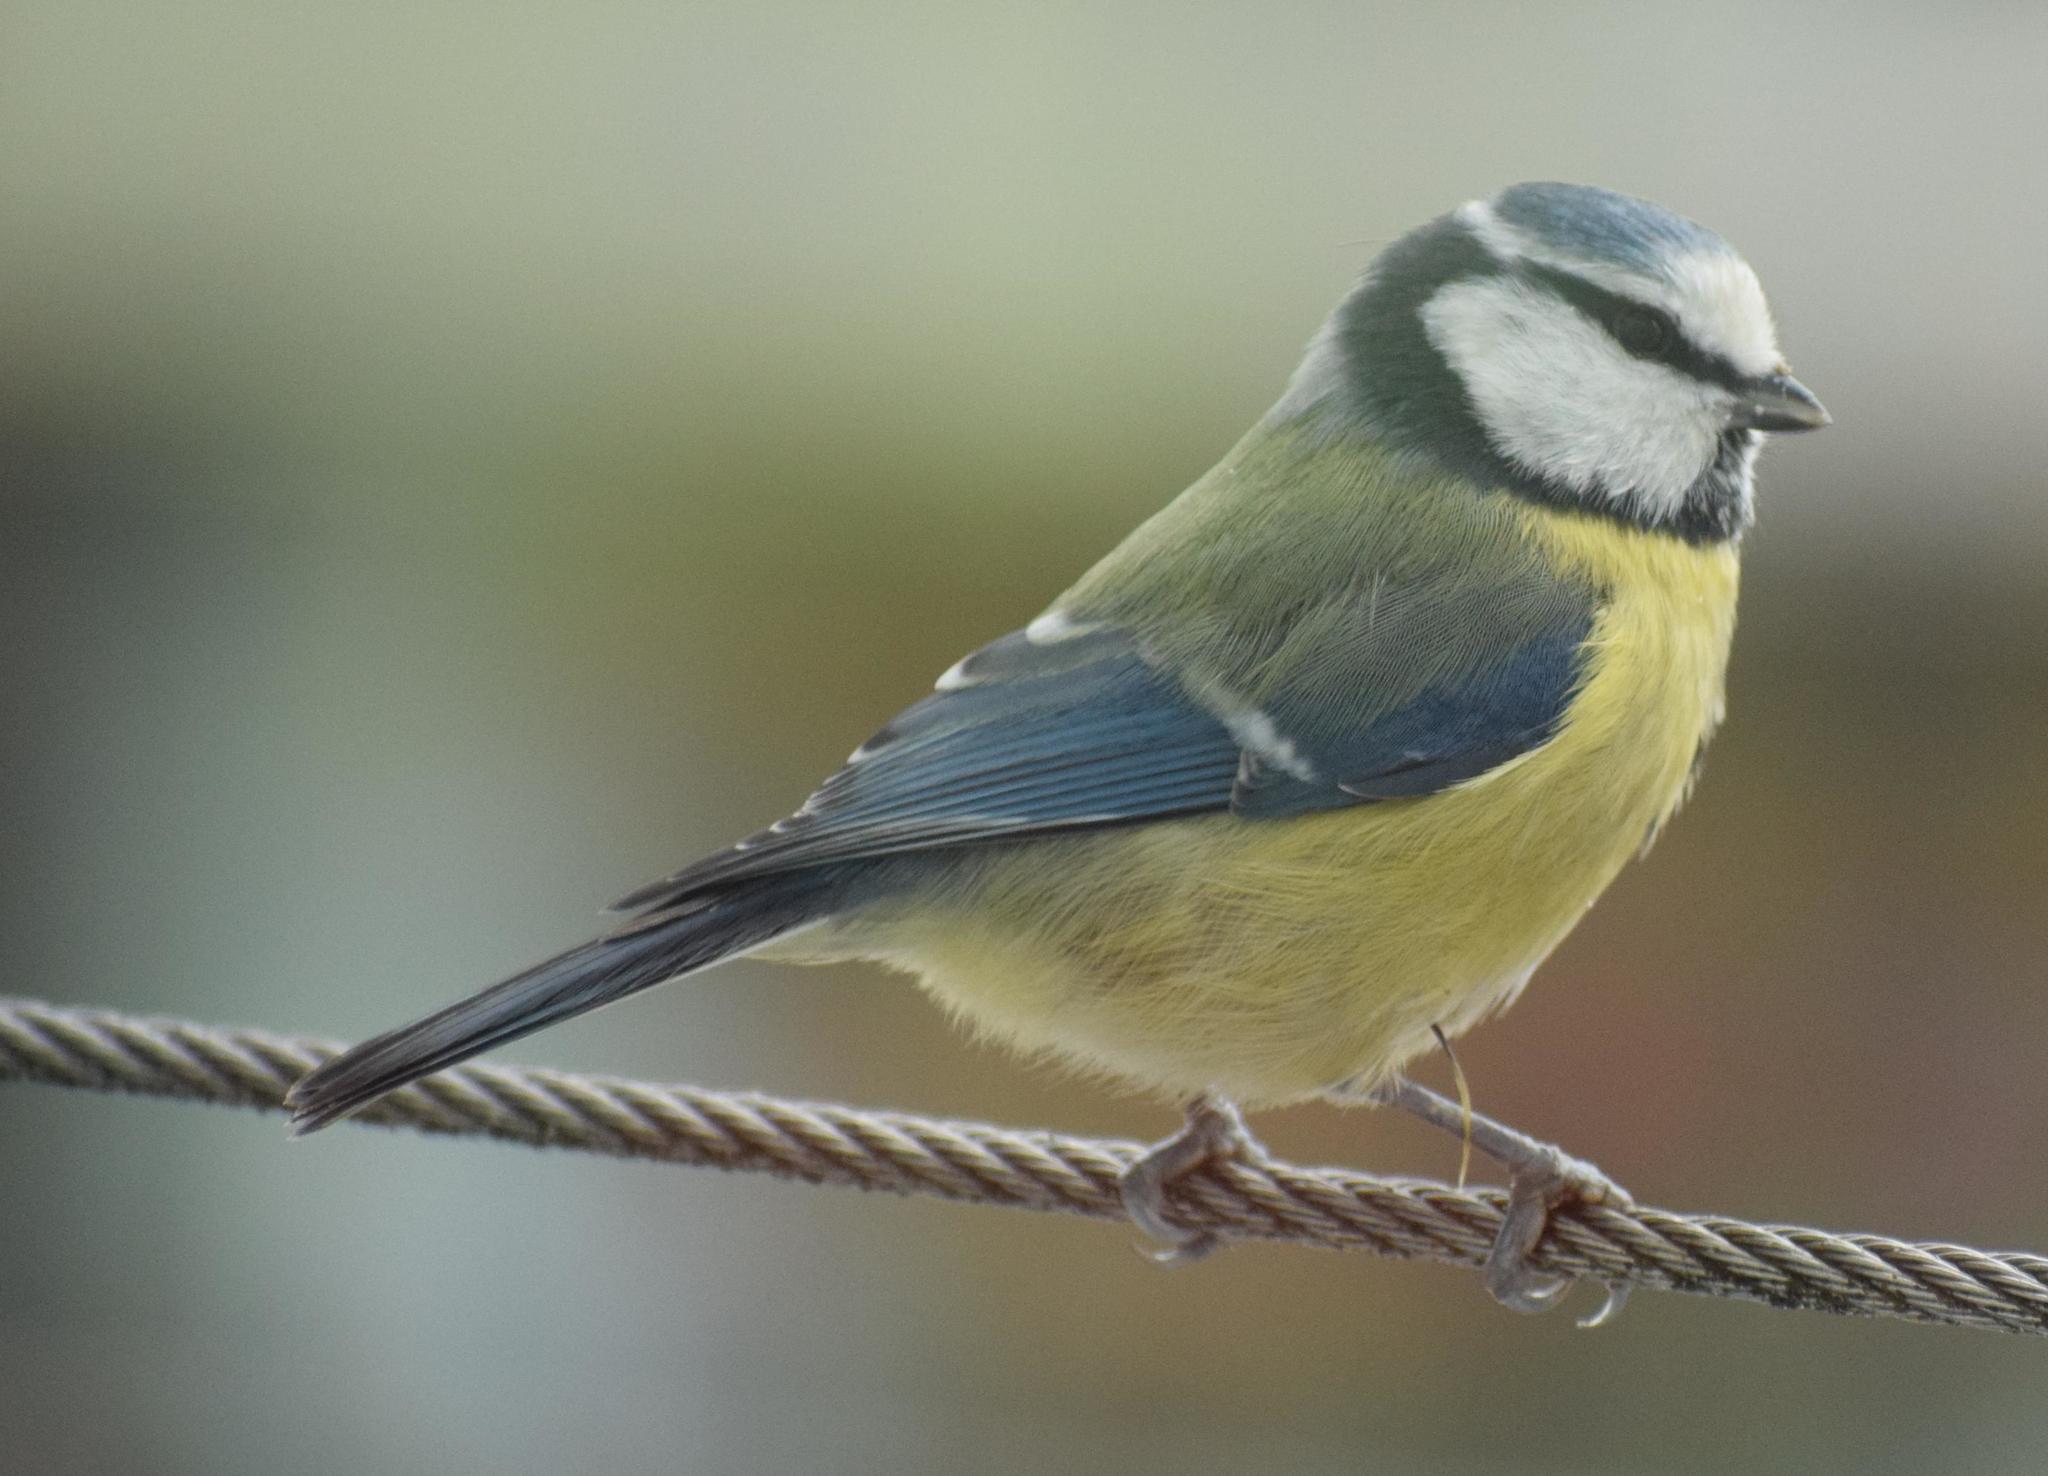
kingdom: Animalia
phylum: Chordata
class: Aves
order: Passeriformes
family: Paridae
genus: Cyanistes
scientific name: Cyanistes caeruleus
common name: Eurasian blue tit
